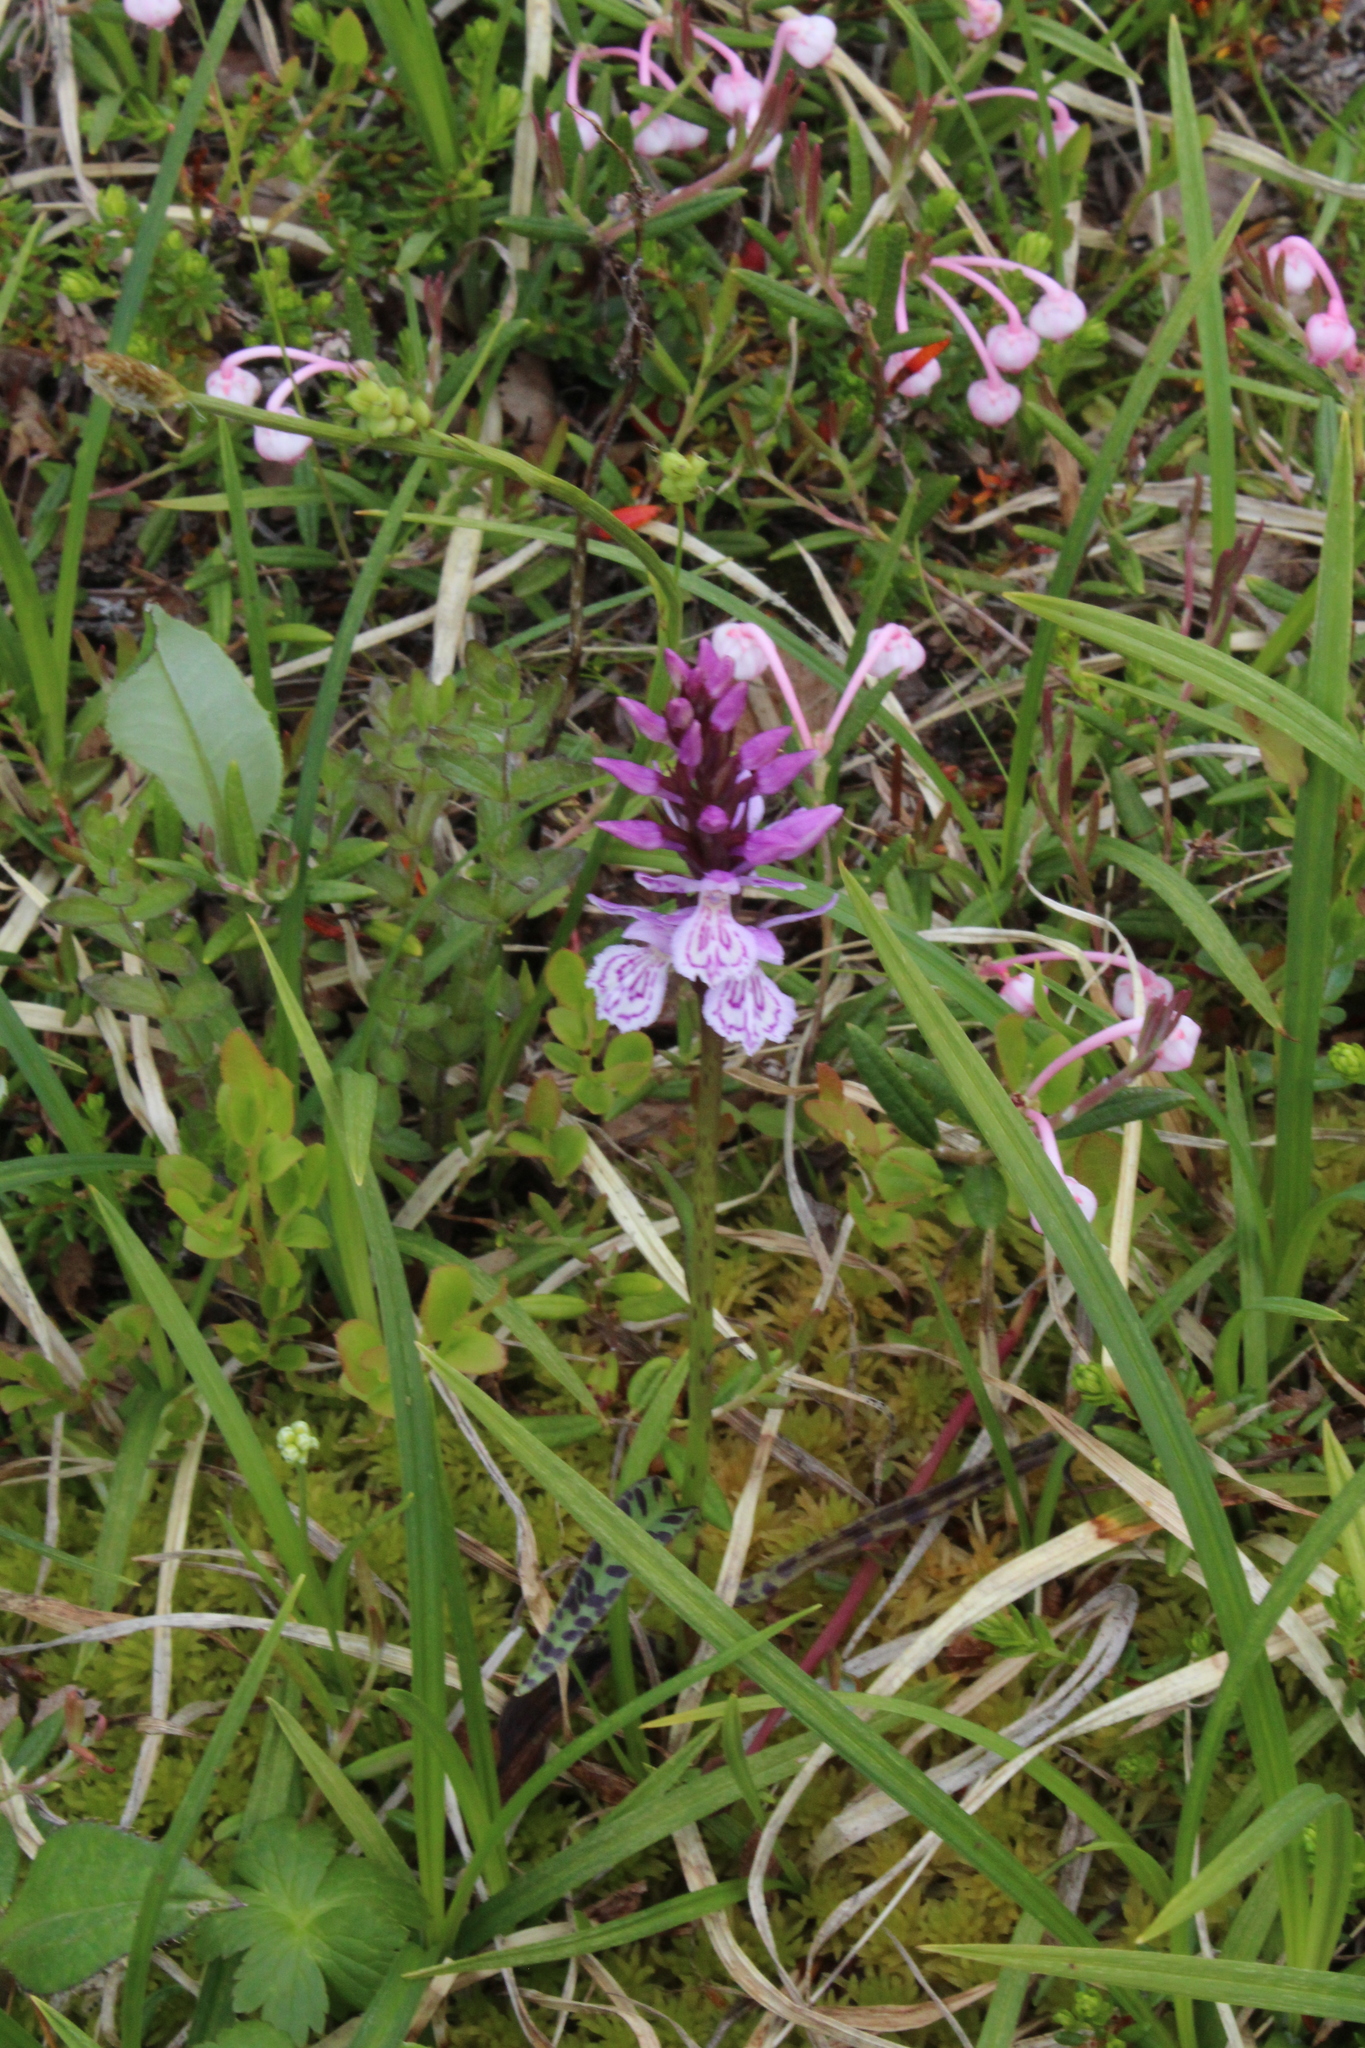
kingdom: Plantae
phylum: Tracheophyta
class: Liliopsida
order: Asparagales
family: Orchidaceae
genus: Dactylorhiza
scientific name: Dactylorhiza maculata
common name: Heath spotted-orchid
